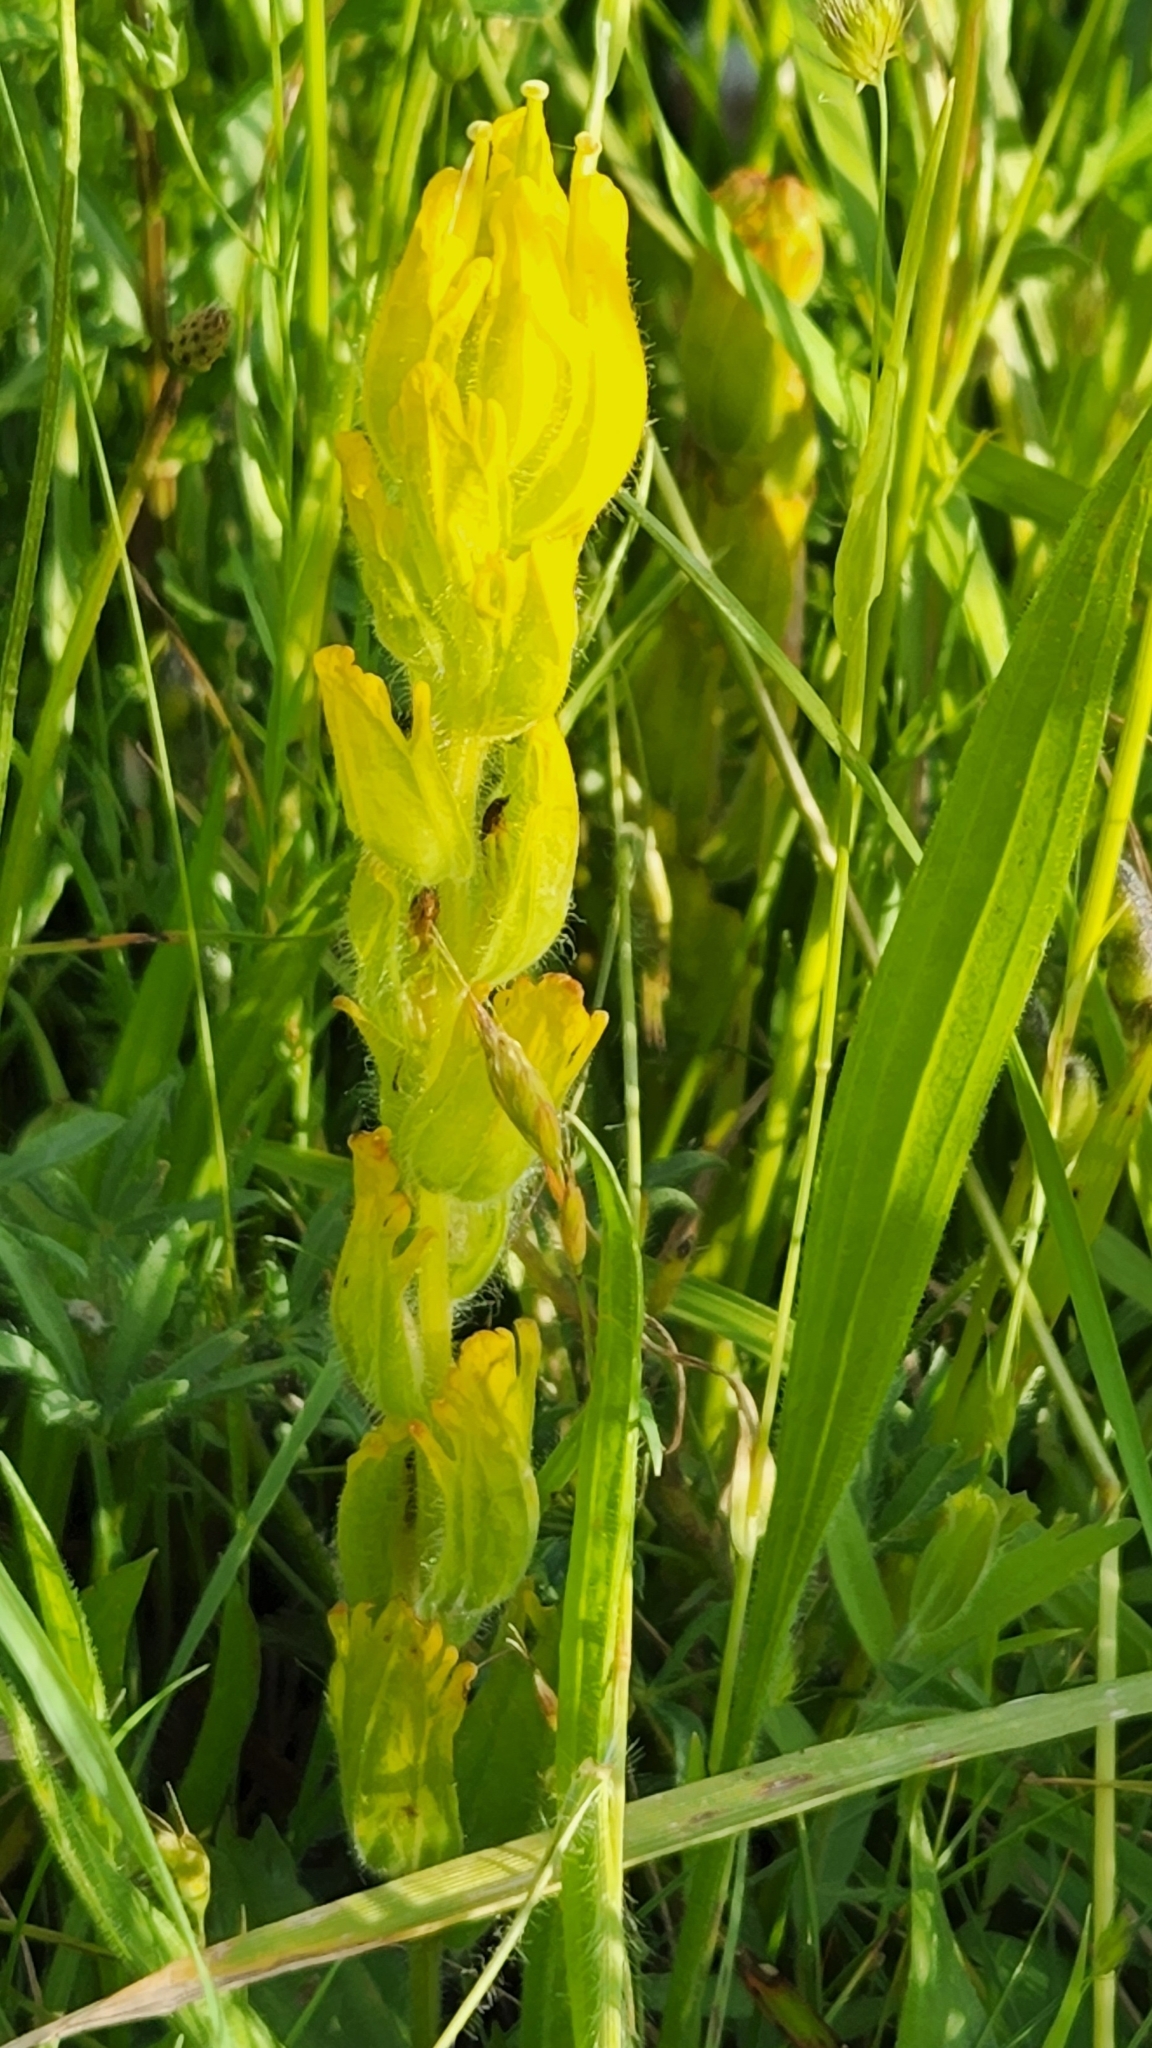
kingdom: Plantae
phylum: Tracheophyta
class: Magnoliopsida
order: Lamiales
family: Orobanchaceae
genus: Castilleja
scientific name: Castilleja levisecta
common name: Golden paintbrush
